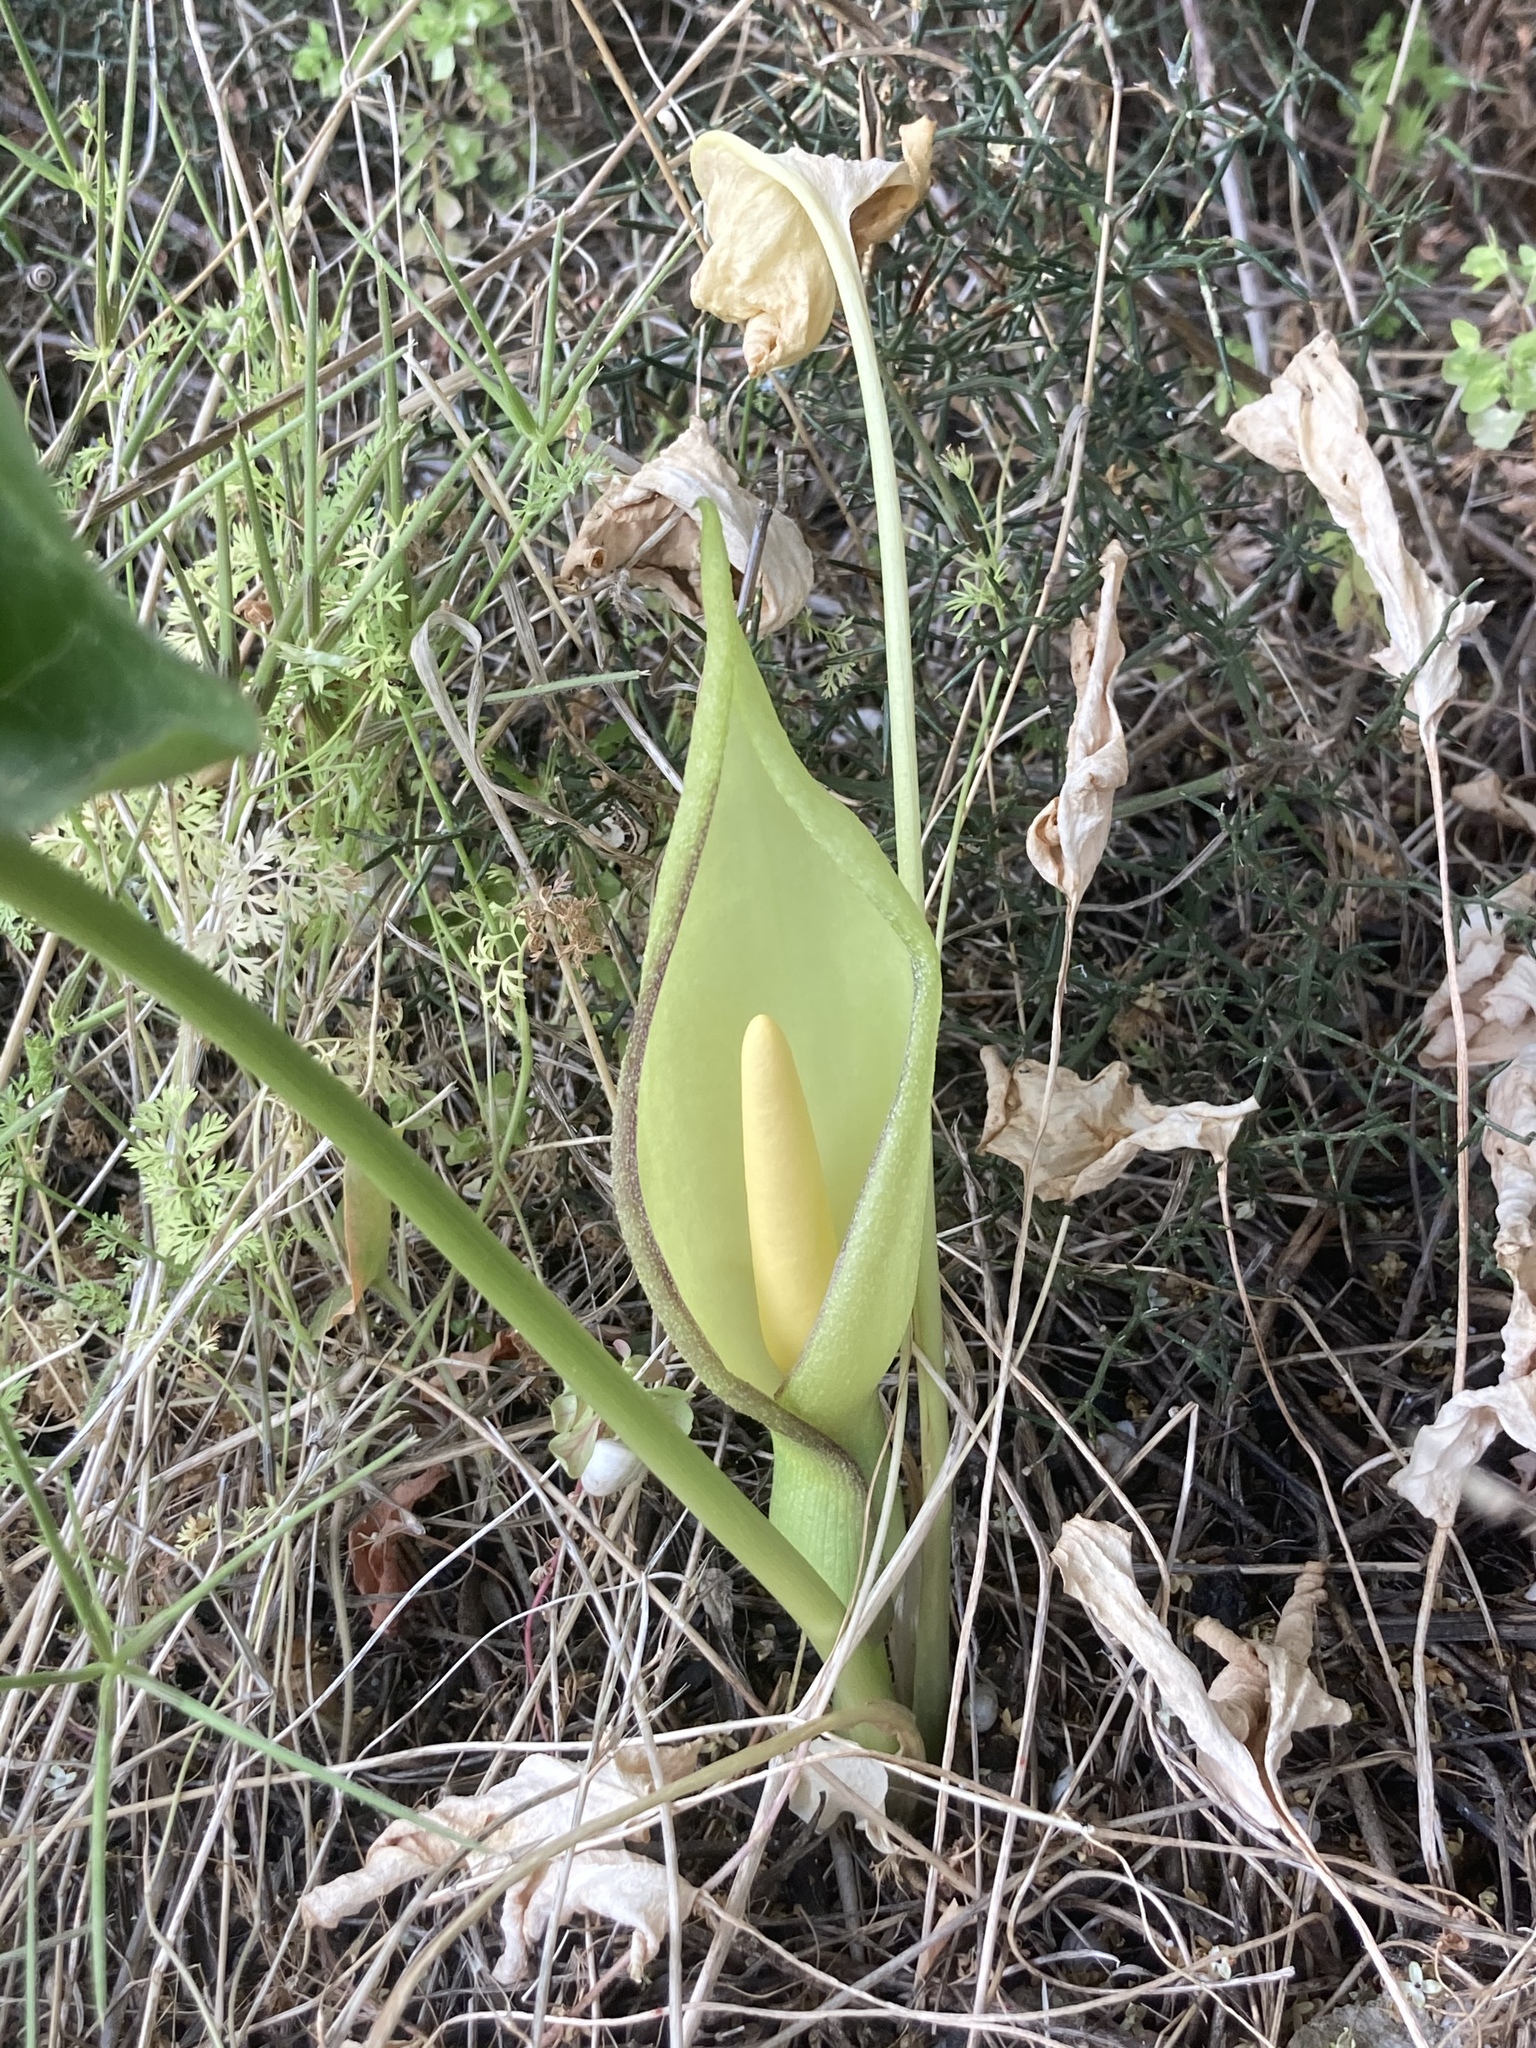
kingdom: Plantae
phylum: Tracheophyta
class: Liliopsida
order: Alismatales
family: Araceae
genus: Arum
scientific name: Arum concinnatum
